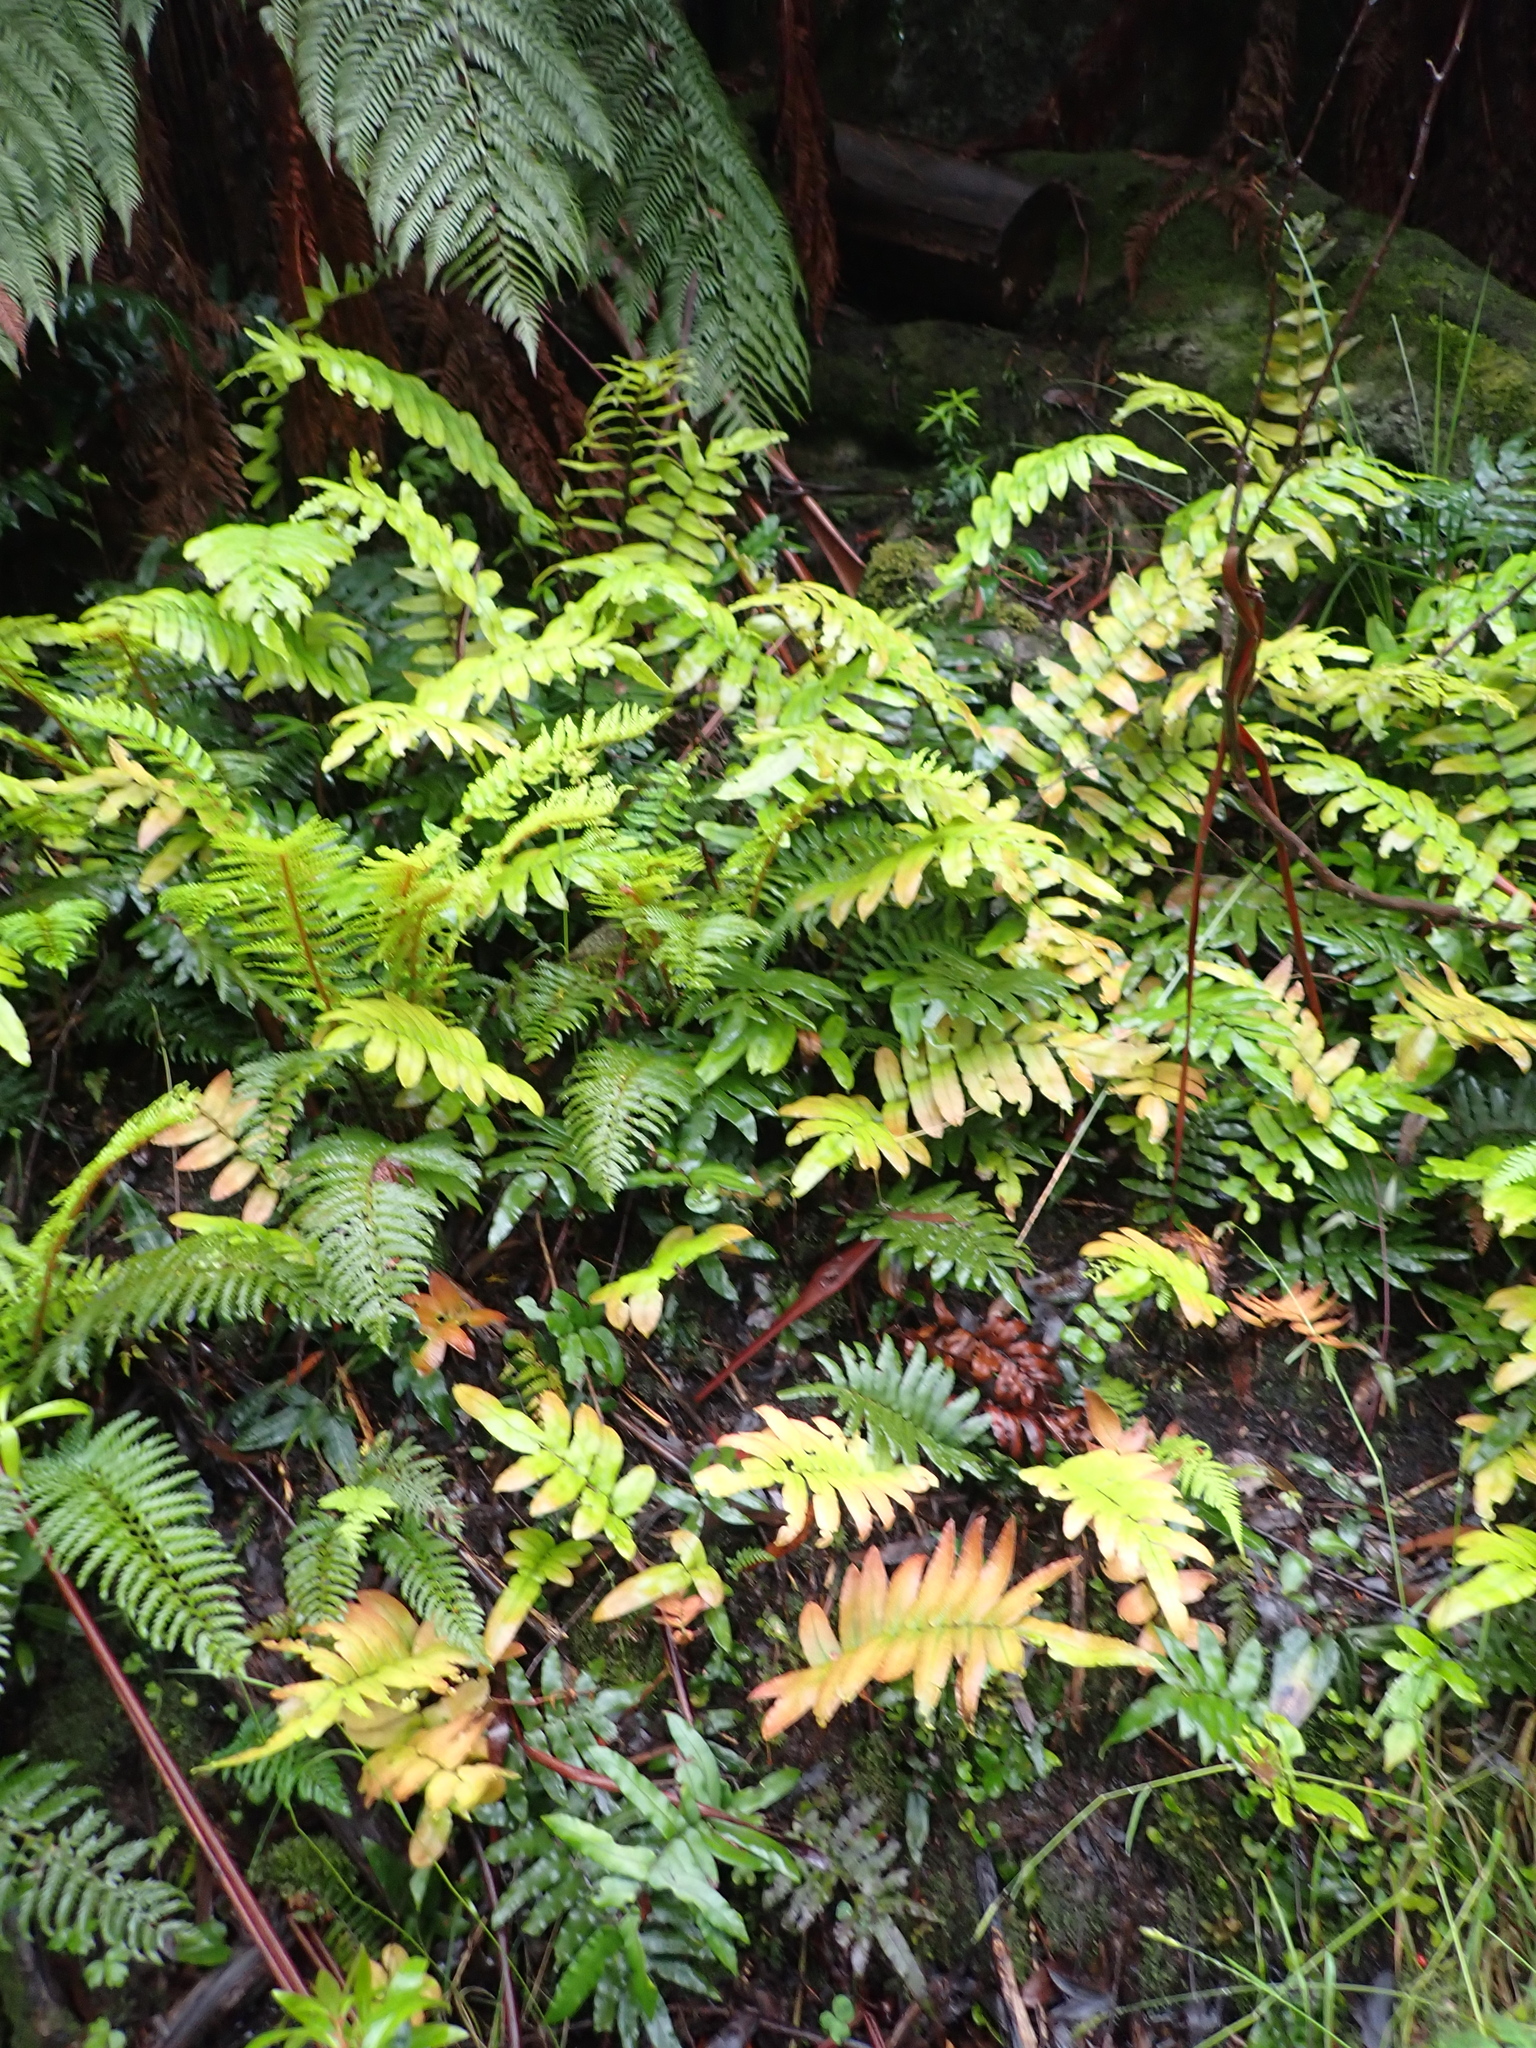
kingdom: Plantae
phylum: Tracheophyta
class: Polypodiopsida
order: Polypodiales
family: Blechnaceae
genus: Parablechnum
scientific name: Parablechnum wattsii
